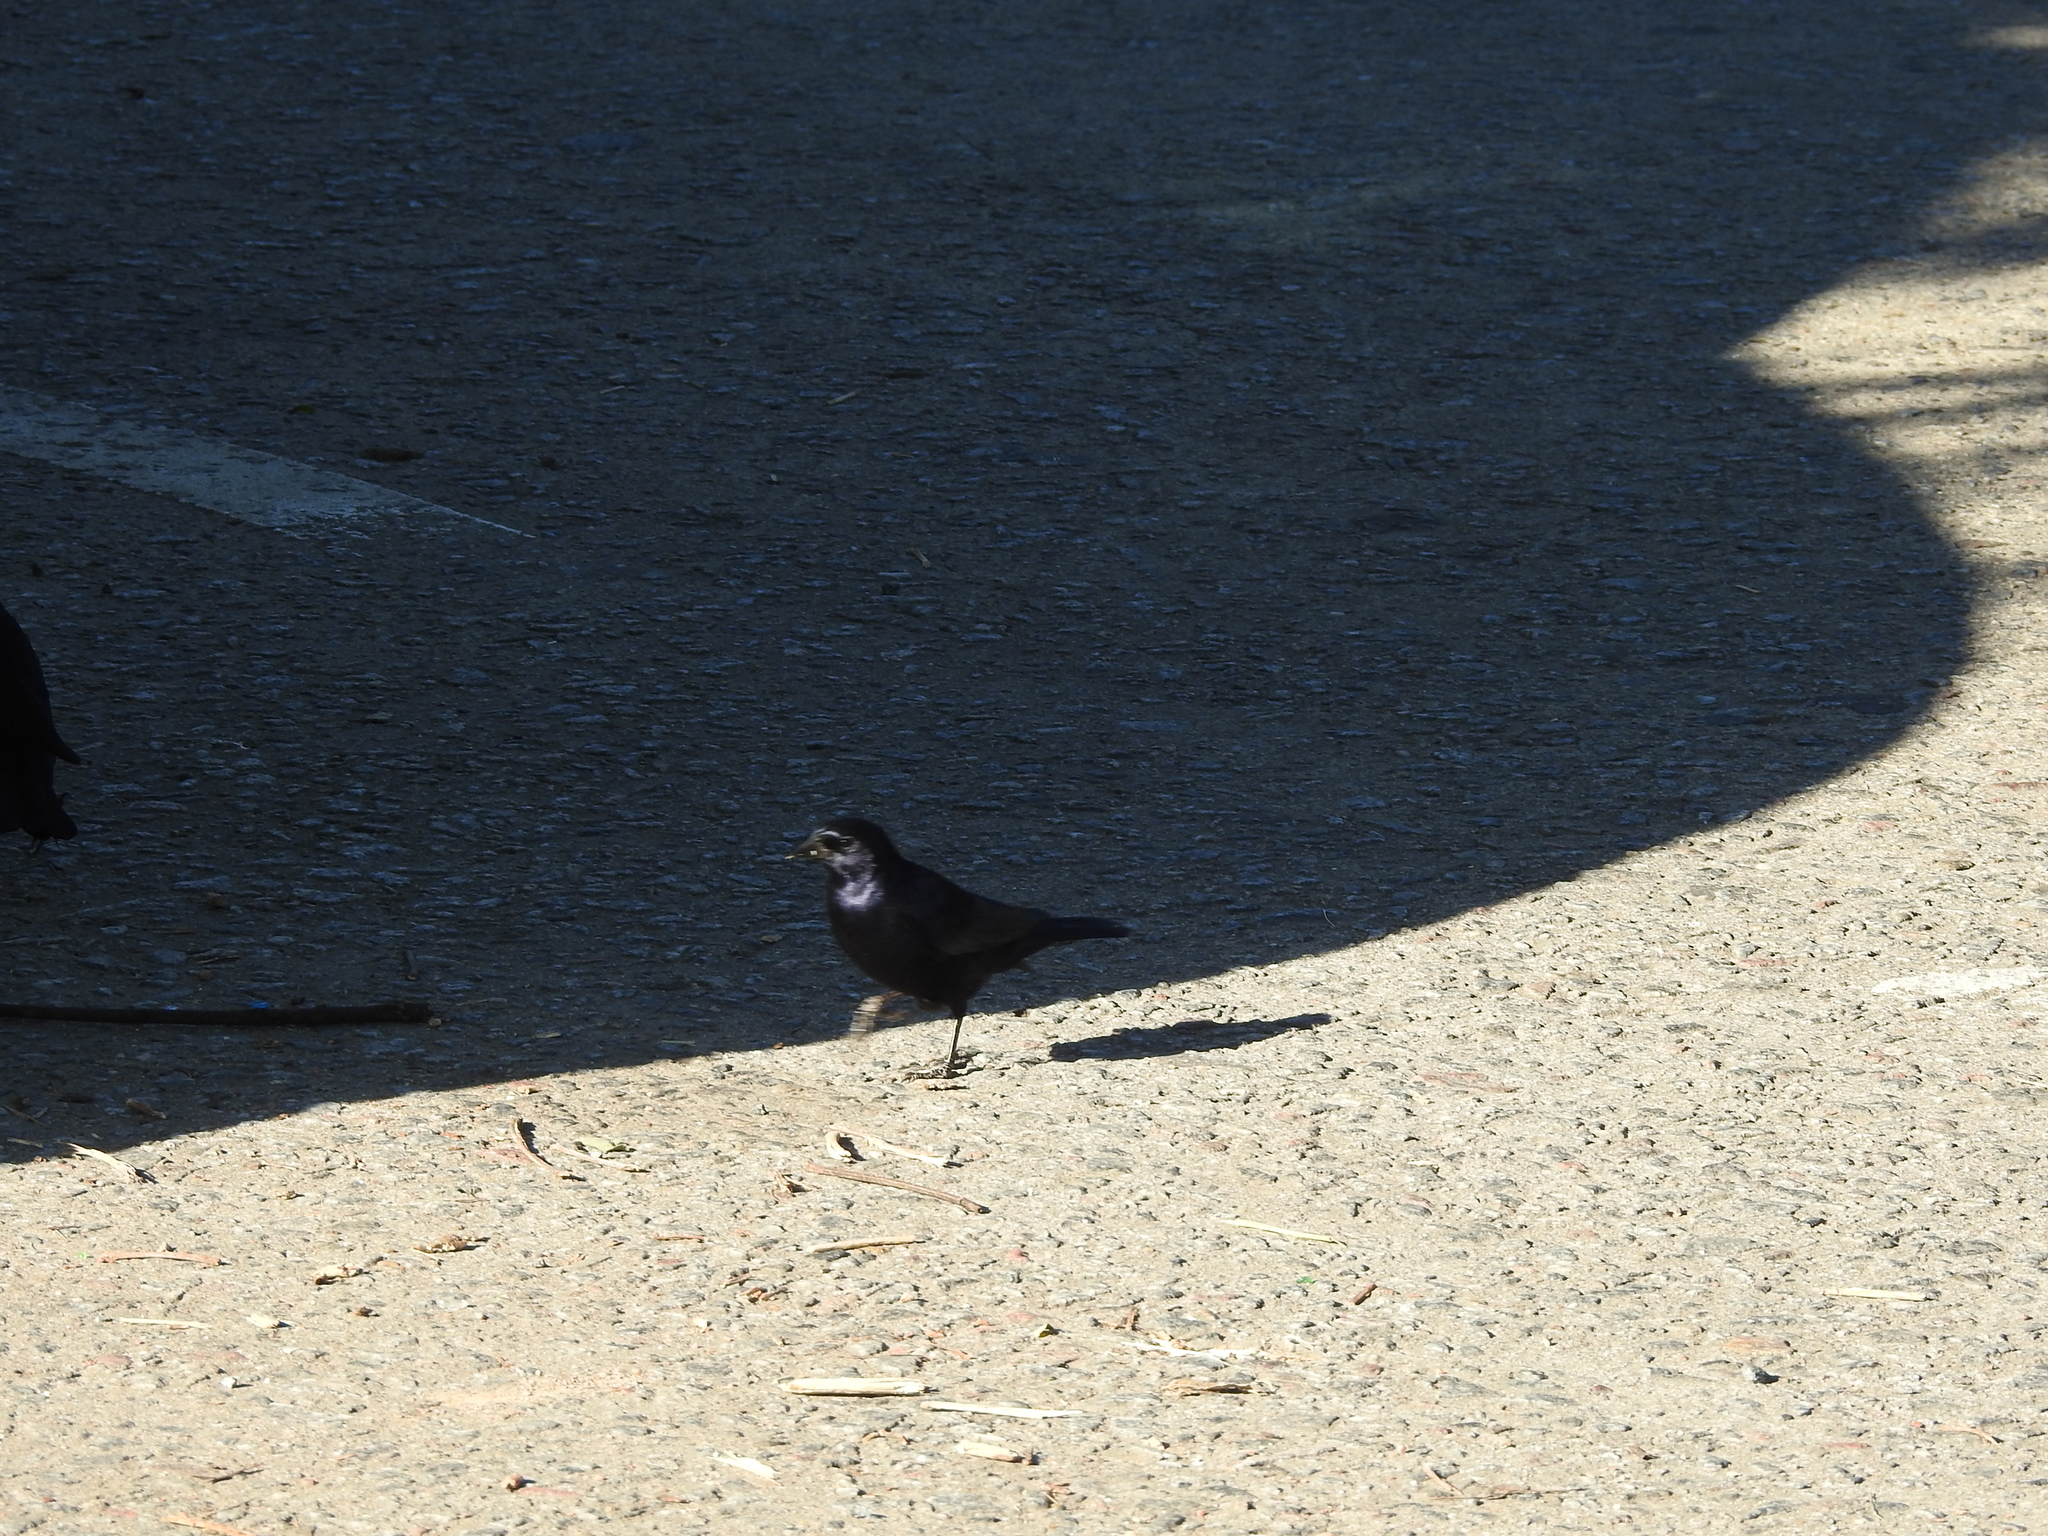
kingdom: Animalia
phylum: Chordata
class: Aves
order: Passeriformes
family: Icteridae
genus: Molothrus
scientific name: Molothrus bonariensis
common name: Shiny cowbird
